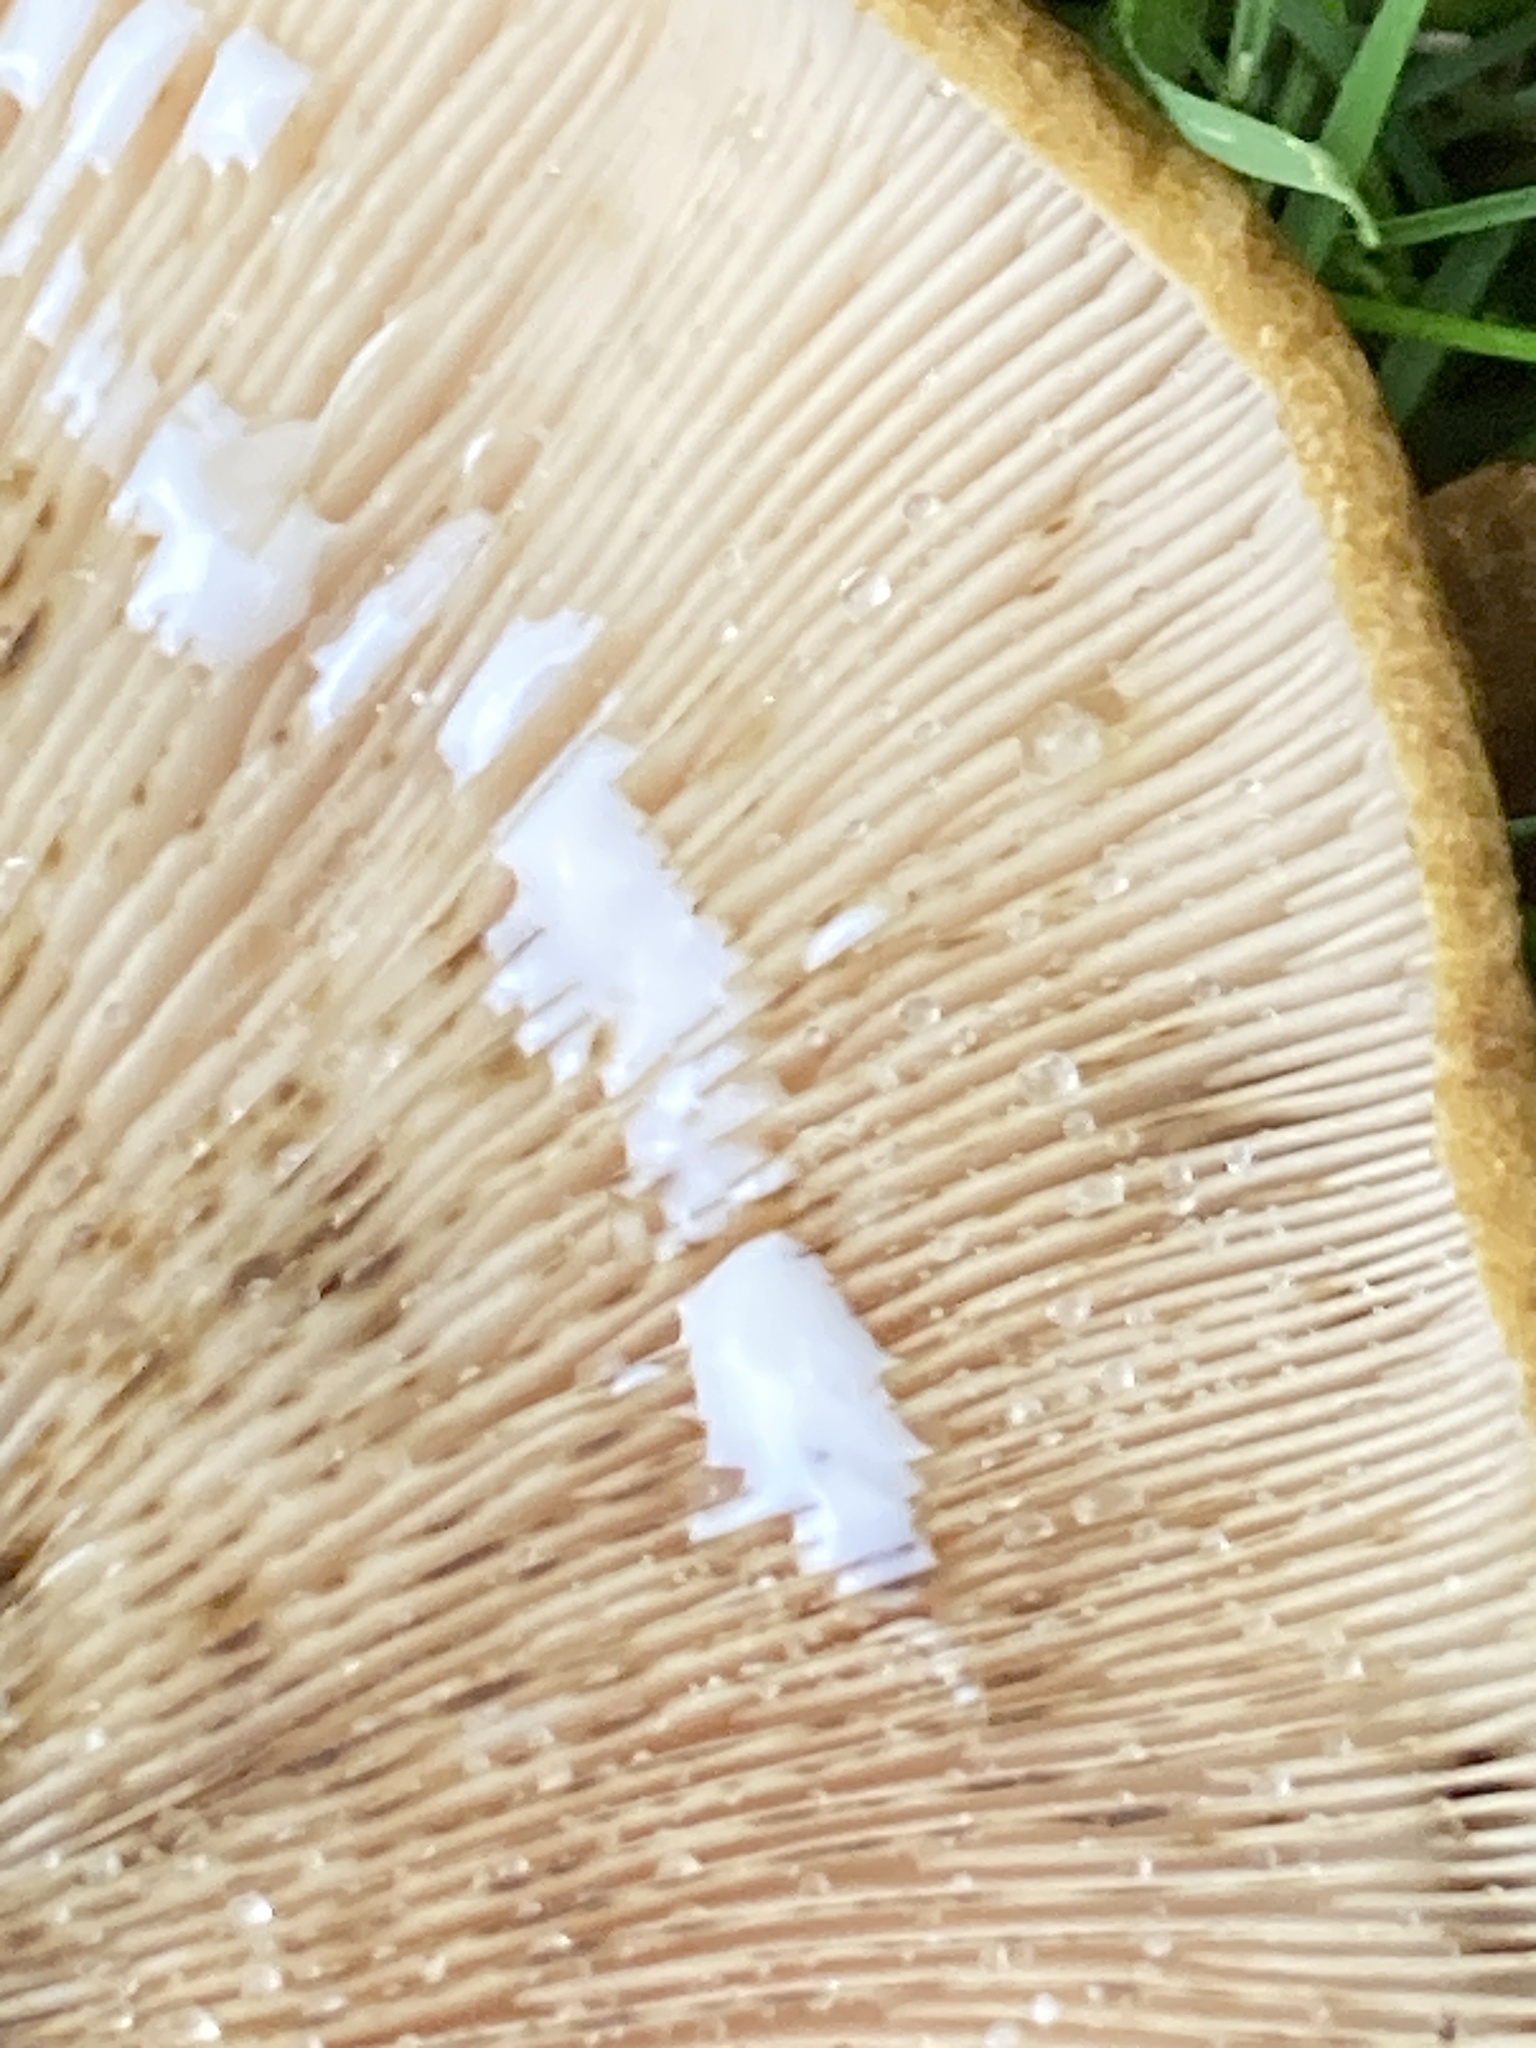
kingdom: Fungi
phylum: Basidiomycota
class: Agaricomycetes
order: Russulales
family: Russulaceae
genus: Lactarius
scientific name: Lactarius turpis
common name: Ugly milk-cap
